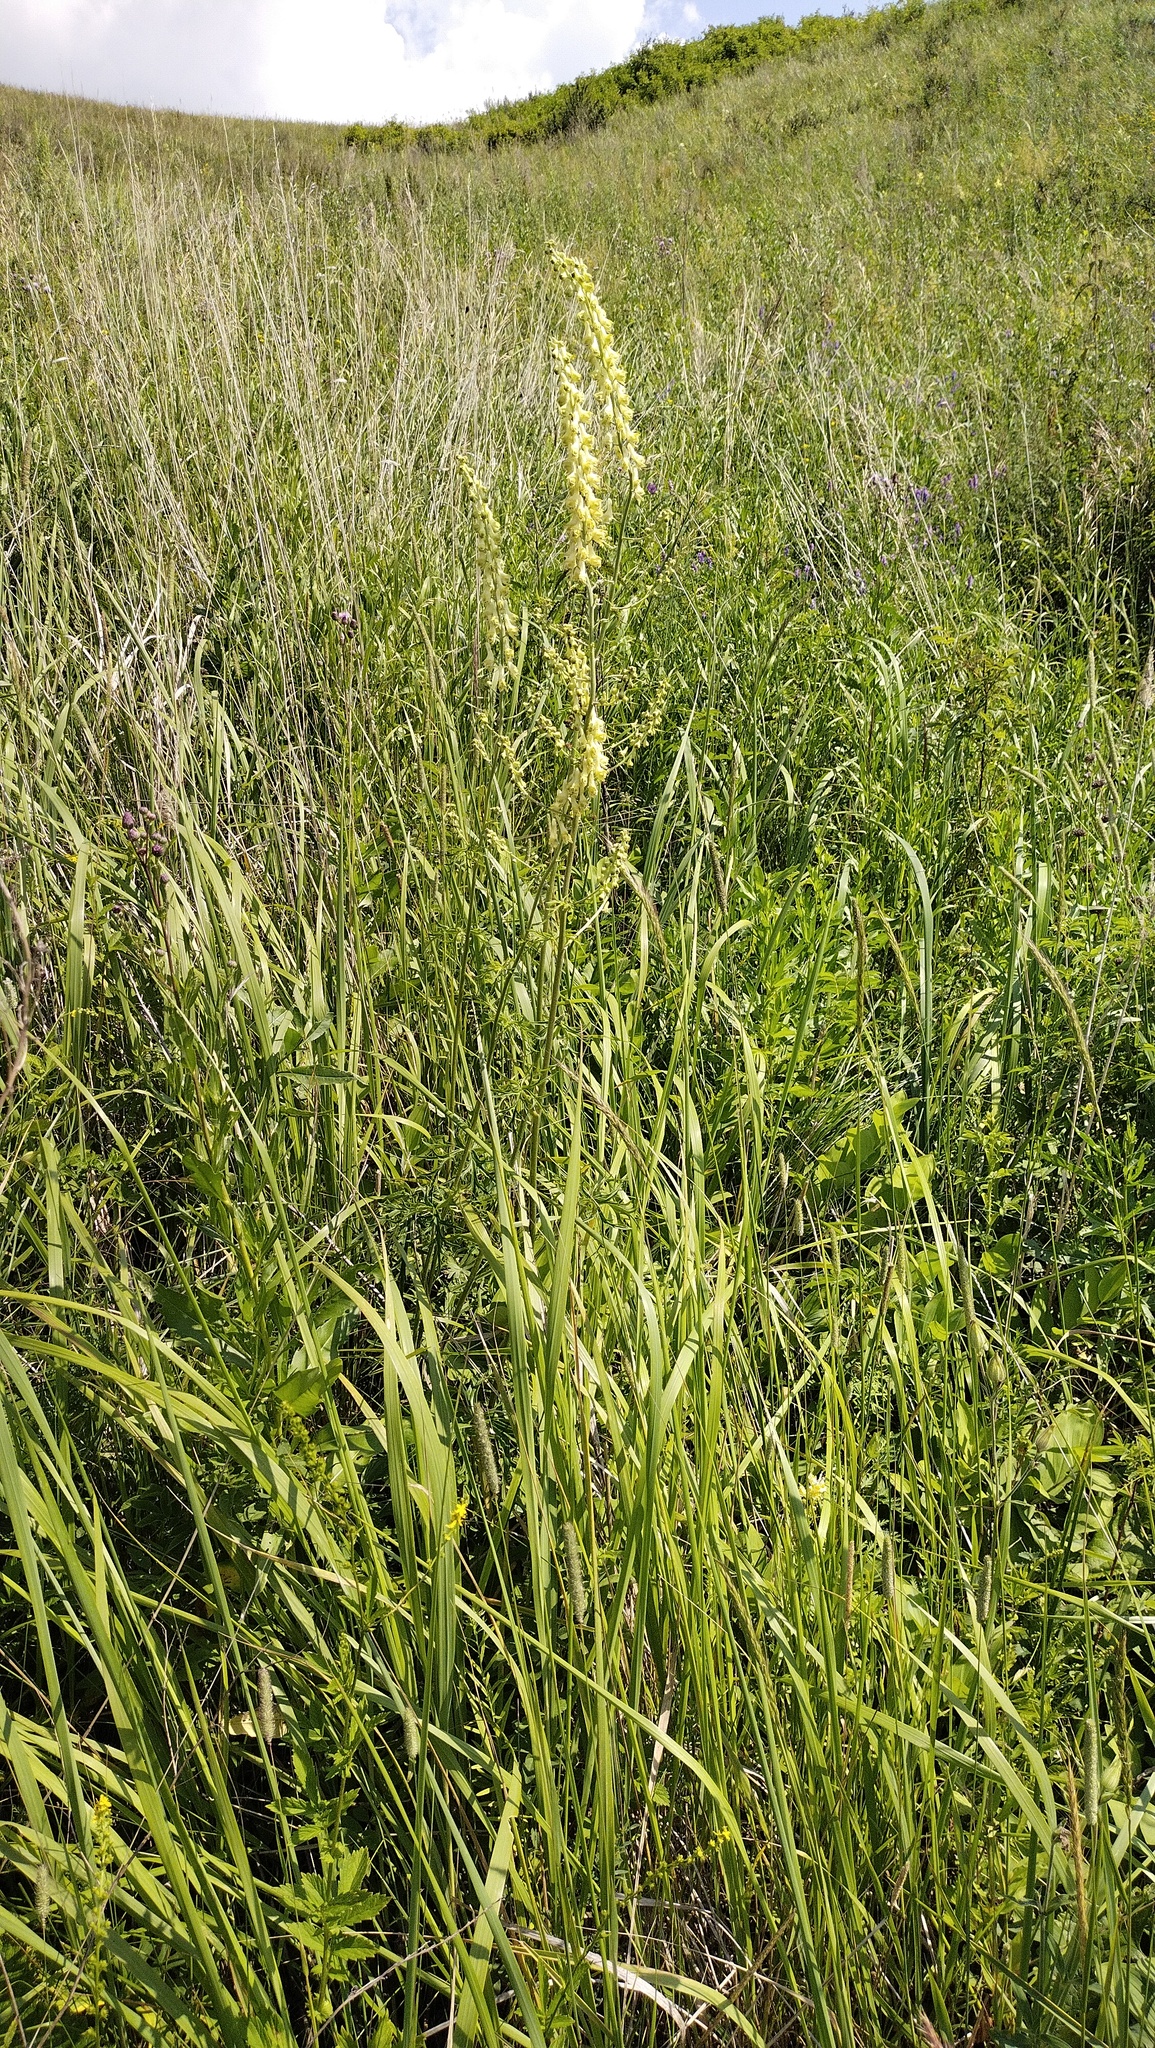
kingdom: Plantae
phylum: Tracheophyta
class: Magnoliopsida
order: Ranunculales
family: Ranunculaceae
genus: Aconitum
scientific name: Aconitum barbatum
